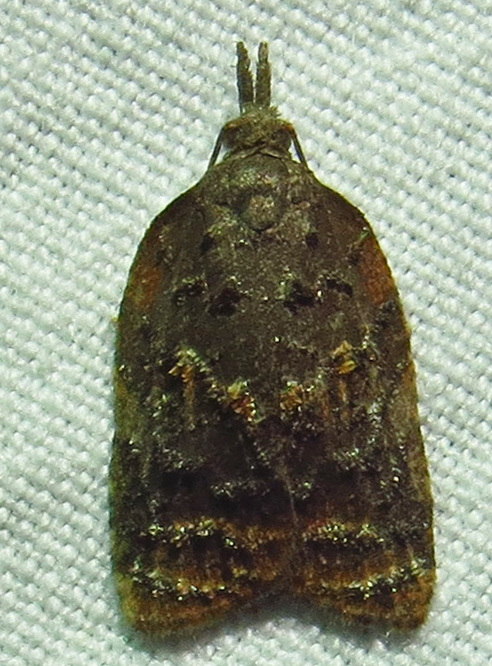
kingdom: Animalia
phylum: Arthropoda
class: Insecta
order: Lepidoptera
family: Tortricidae
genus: Platynota
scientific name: Platynota idaeusalis
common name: Tufted apple bud moth
